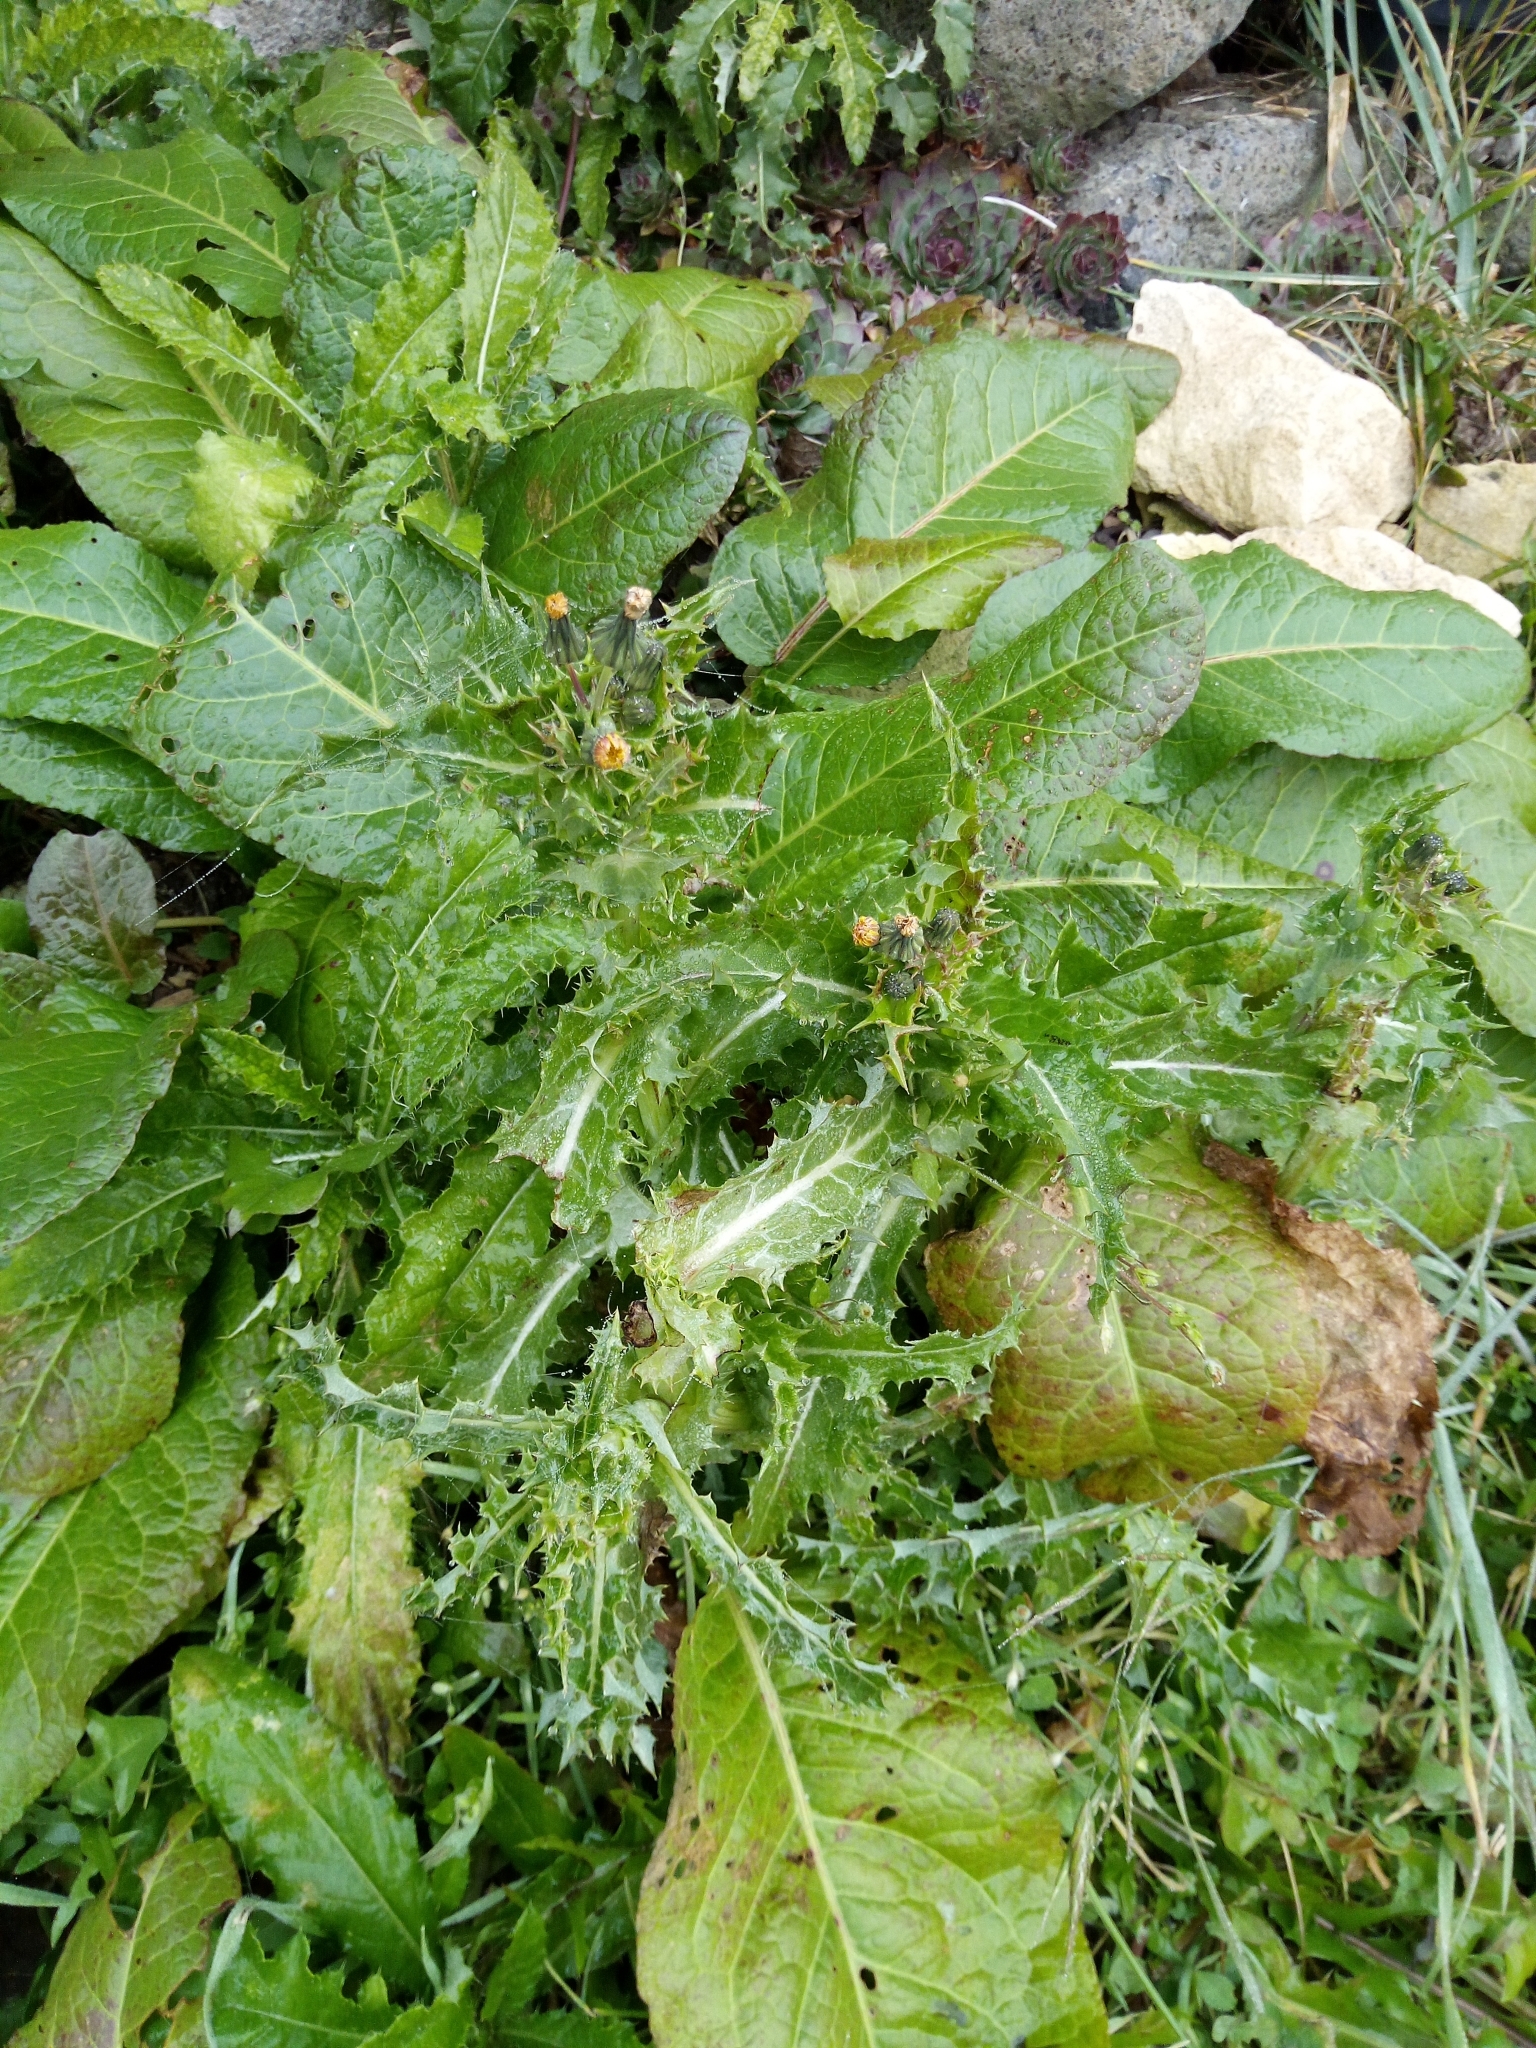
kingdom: Plantae
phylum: Tracheophyta
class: Magnoliopsida
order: Asterales
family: Asteraceae
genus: Sonchus
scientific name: Sonchus asper
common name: Prickly sow-thistle
